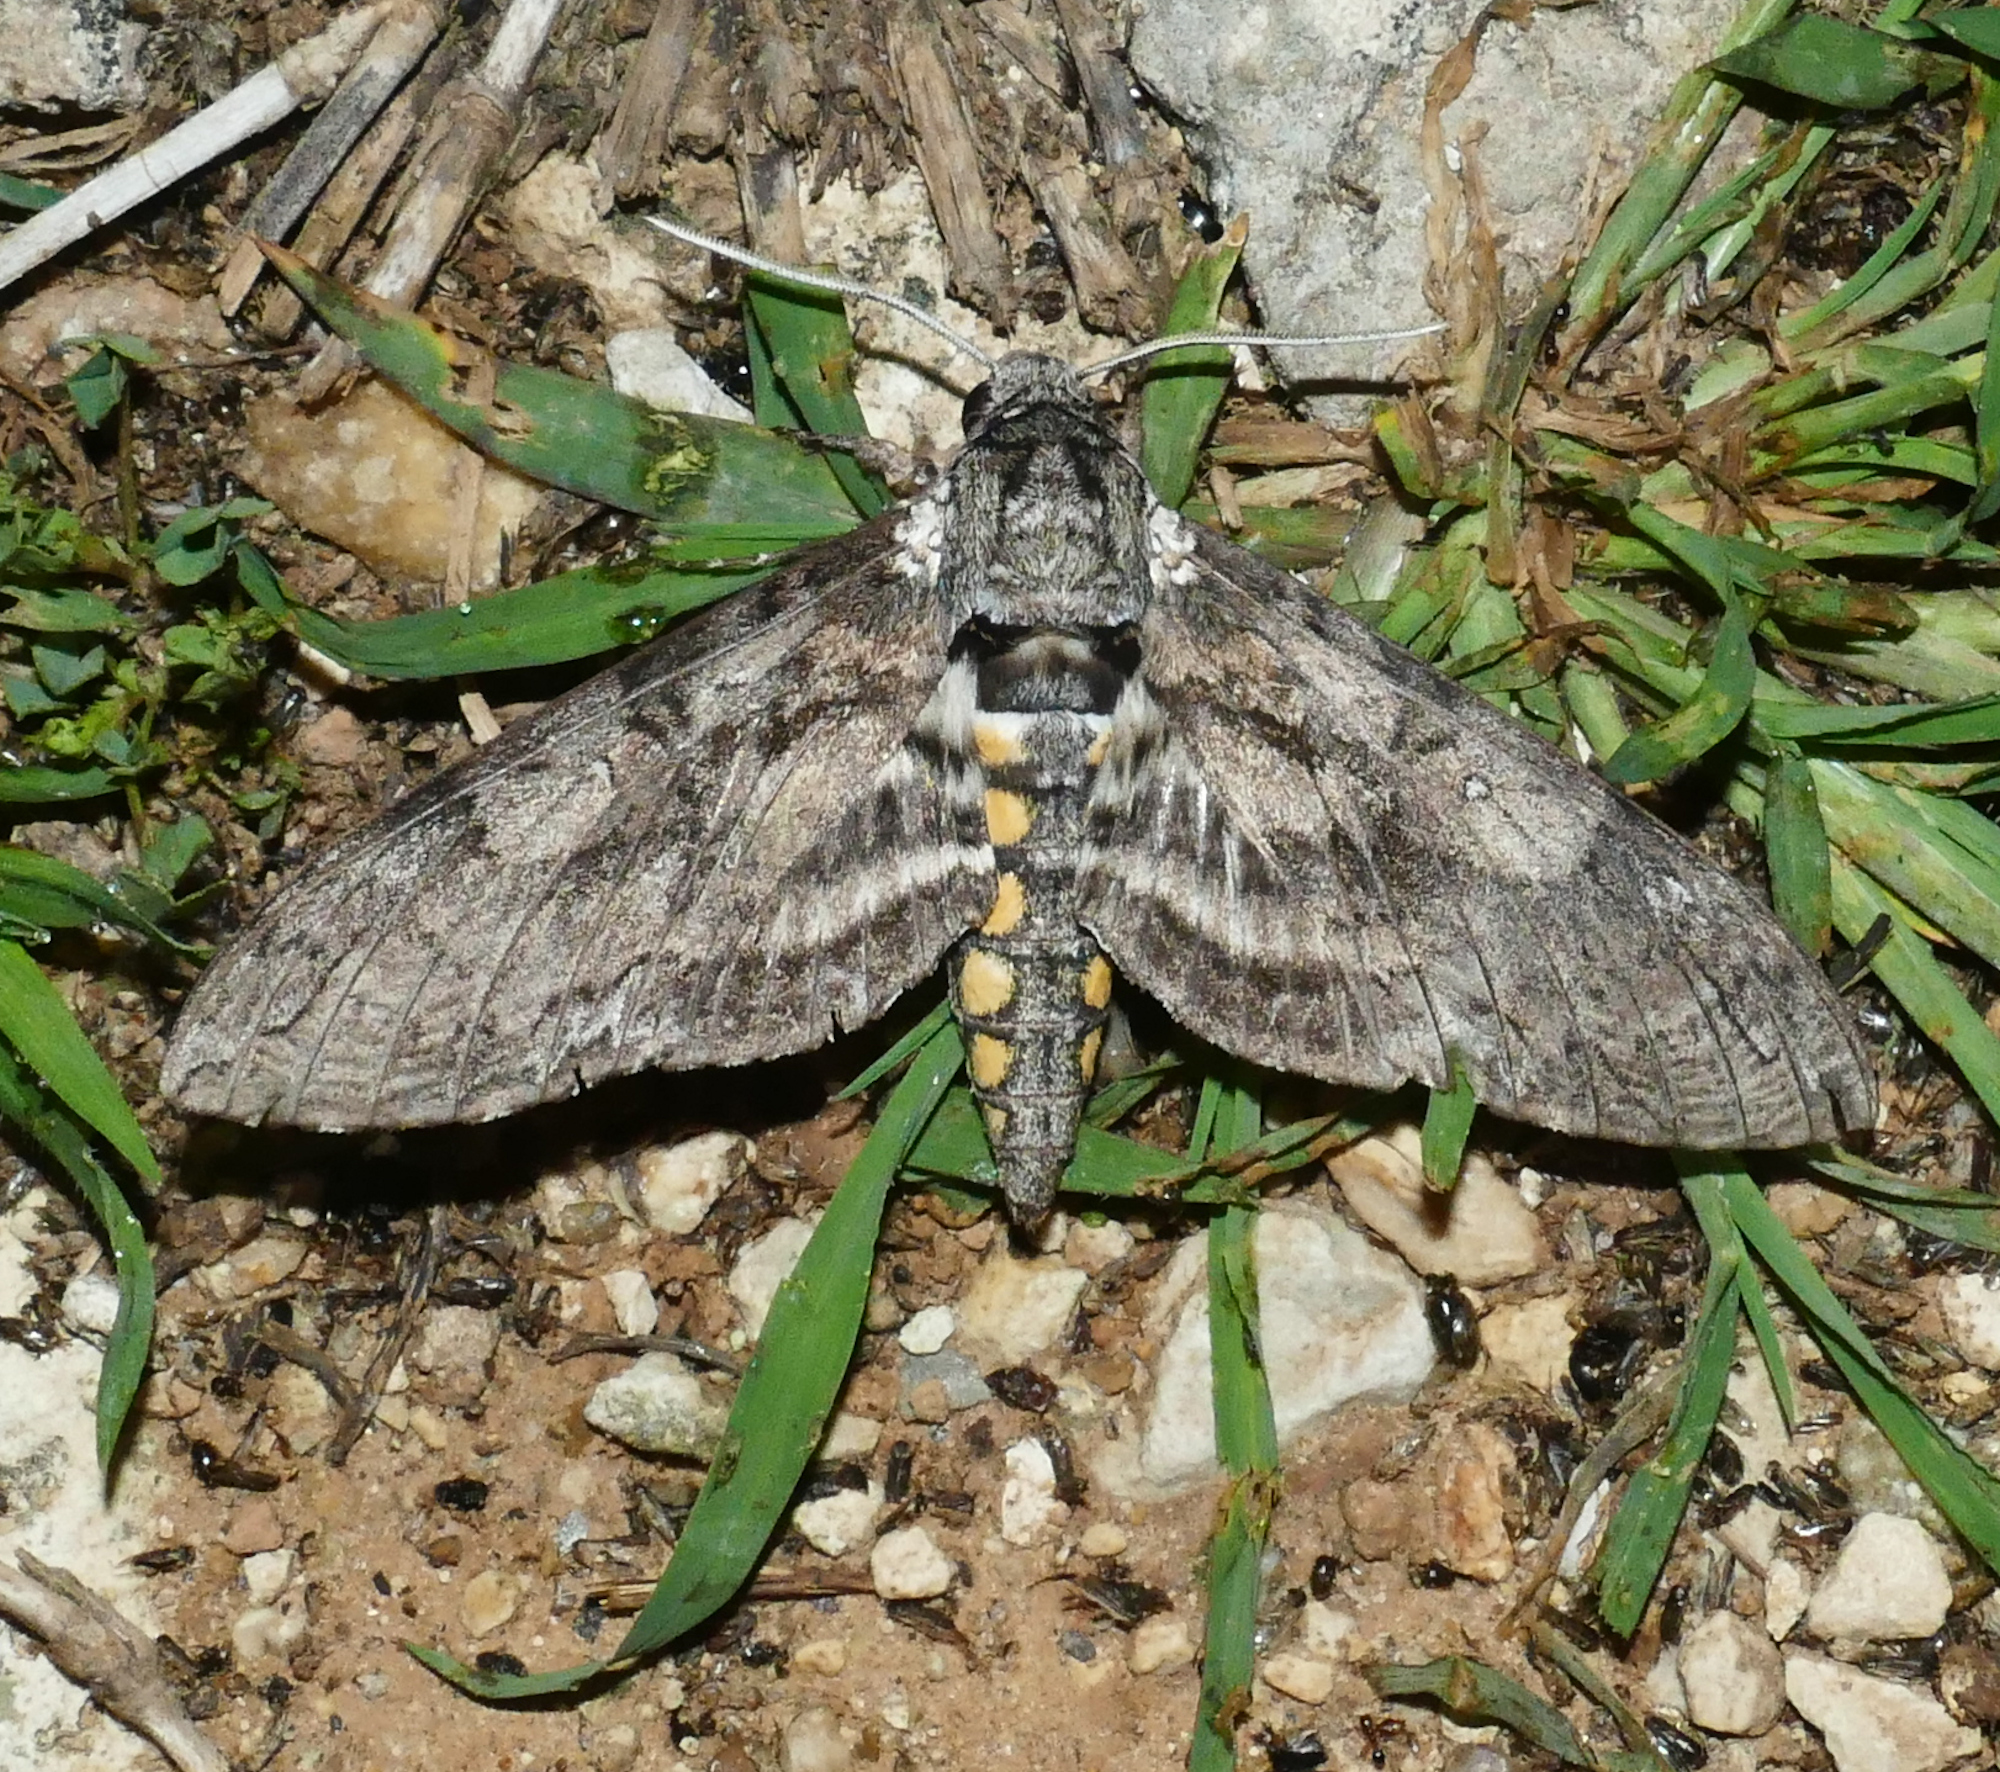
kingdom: Animalia
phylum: Arthropoda
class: Insecta
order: Lepidoptera
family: Sphingidae
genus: Manduca
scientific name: Manduca sexta
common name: Carolina sphinx
